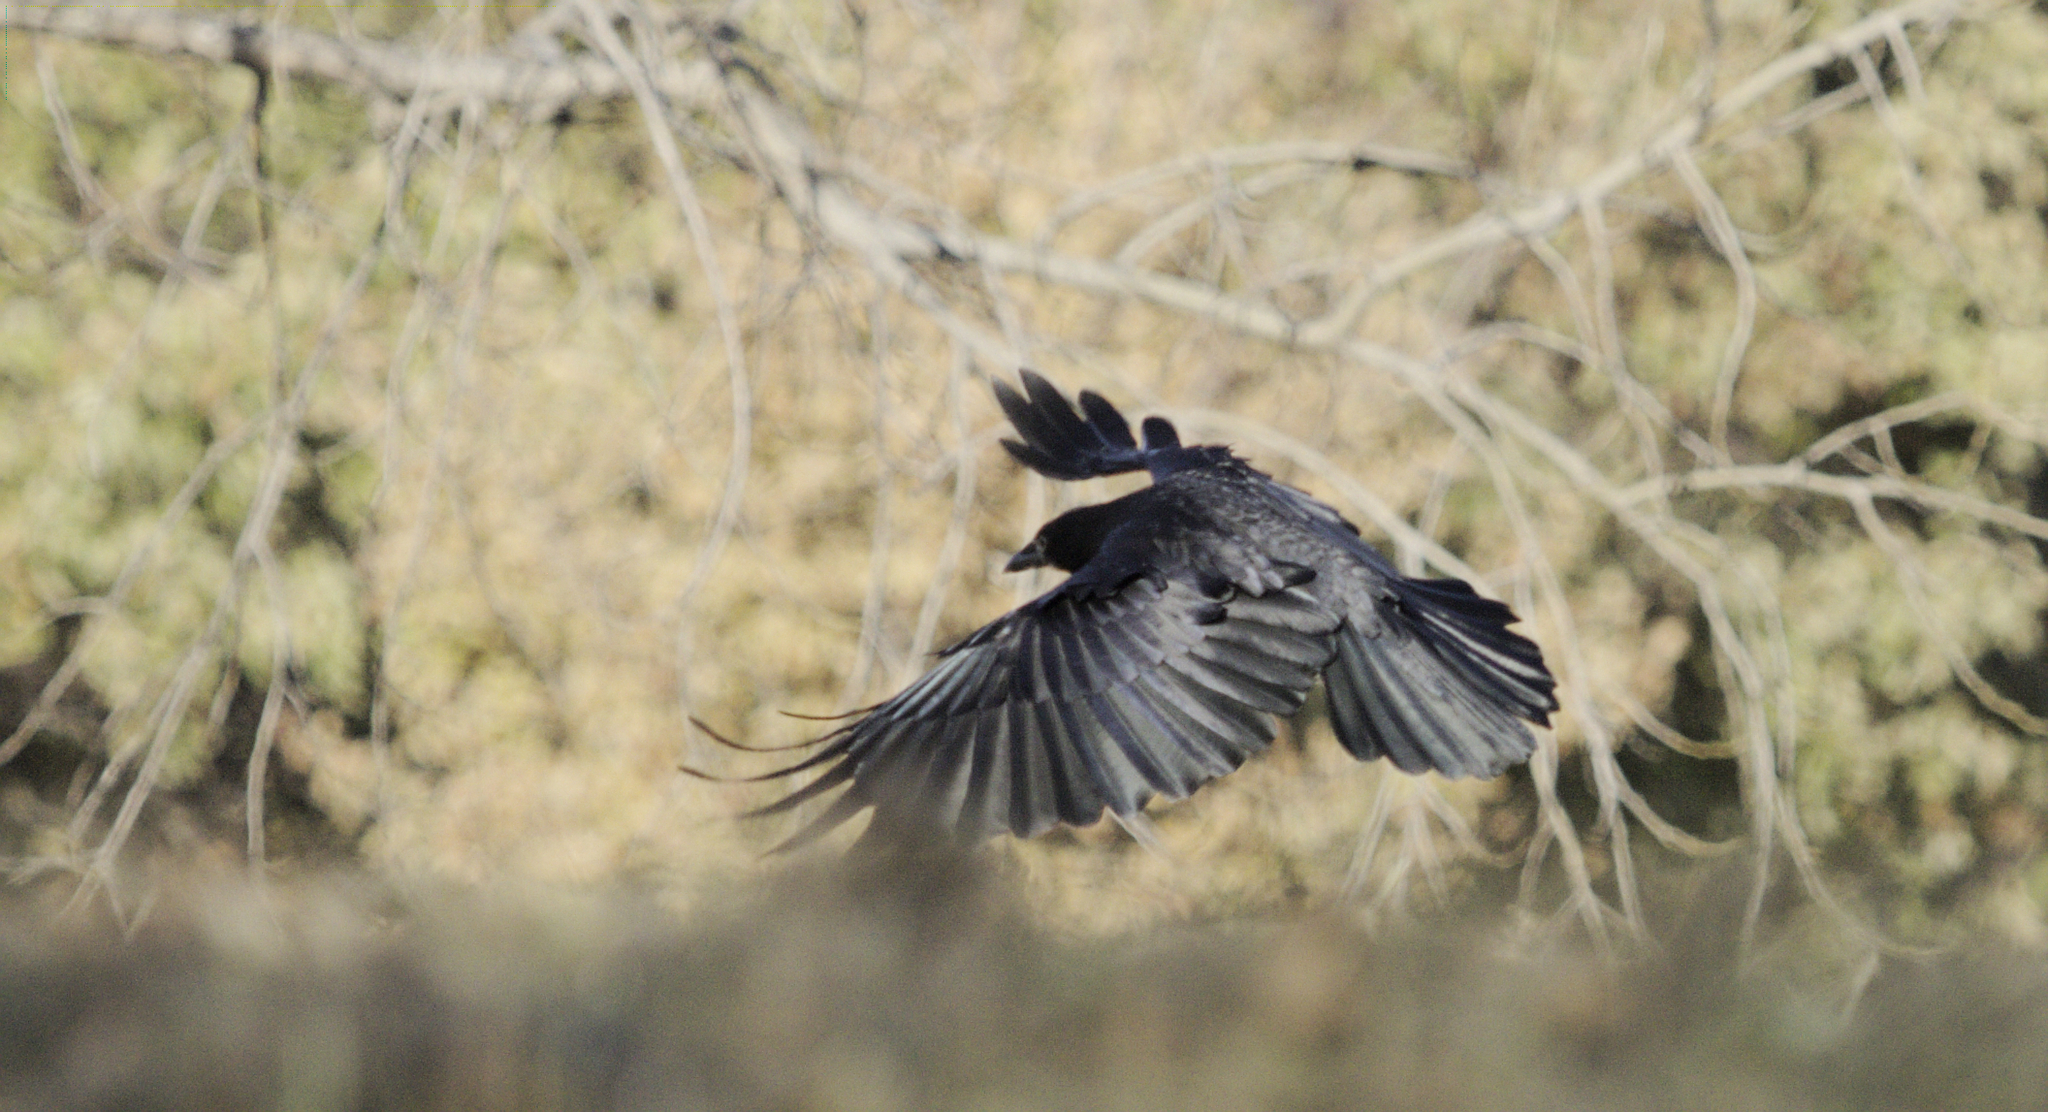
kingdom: Animalia
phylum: Chordata
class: Aves
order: Passeriformes
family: Corvidae
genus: Corvus
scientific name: Corvus brachyrhynchos
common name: American crow
